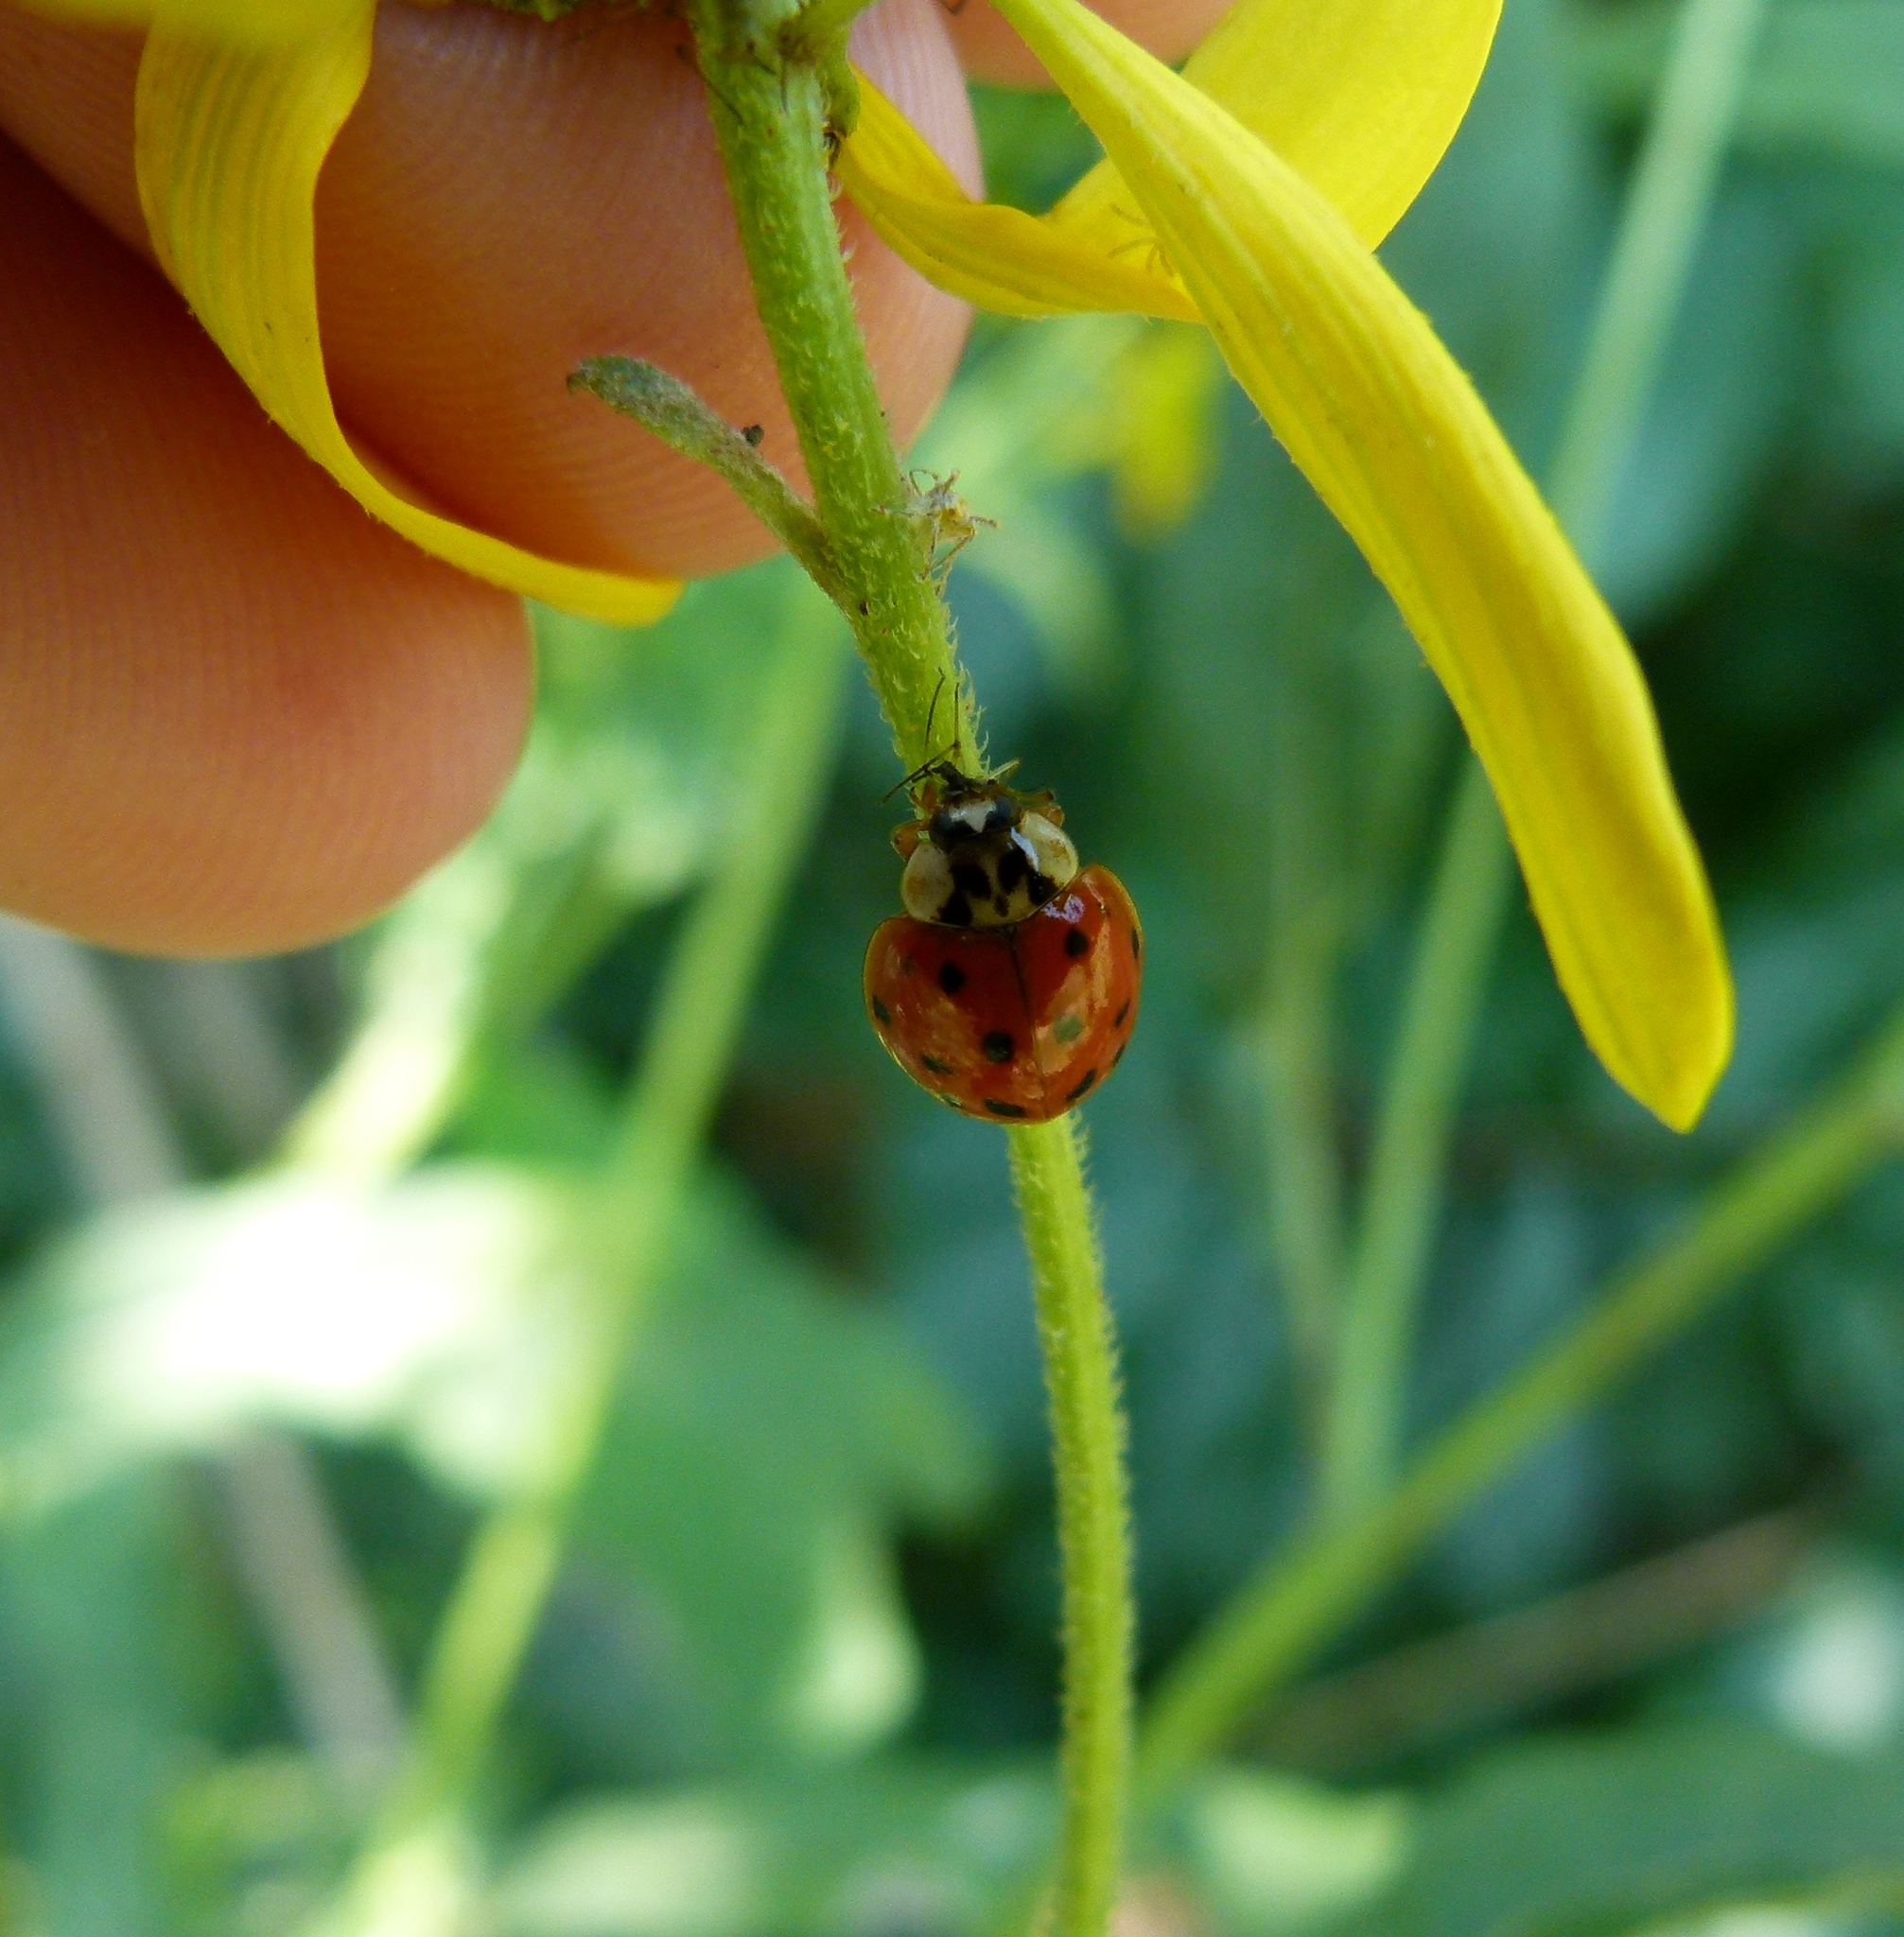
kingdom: Animalia
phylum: Arthropoda
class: Insecta
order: Coleoptera
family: Coccinellidae
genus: Harmonia
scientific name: Harmonia axyridis
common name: Harlequin ladybird
